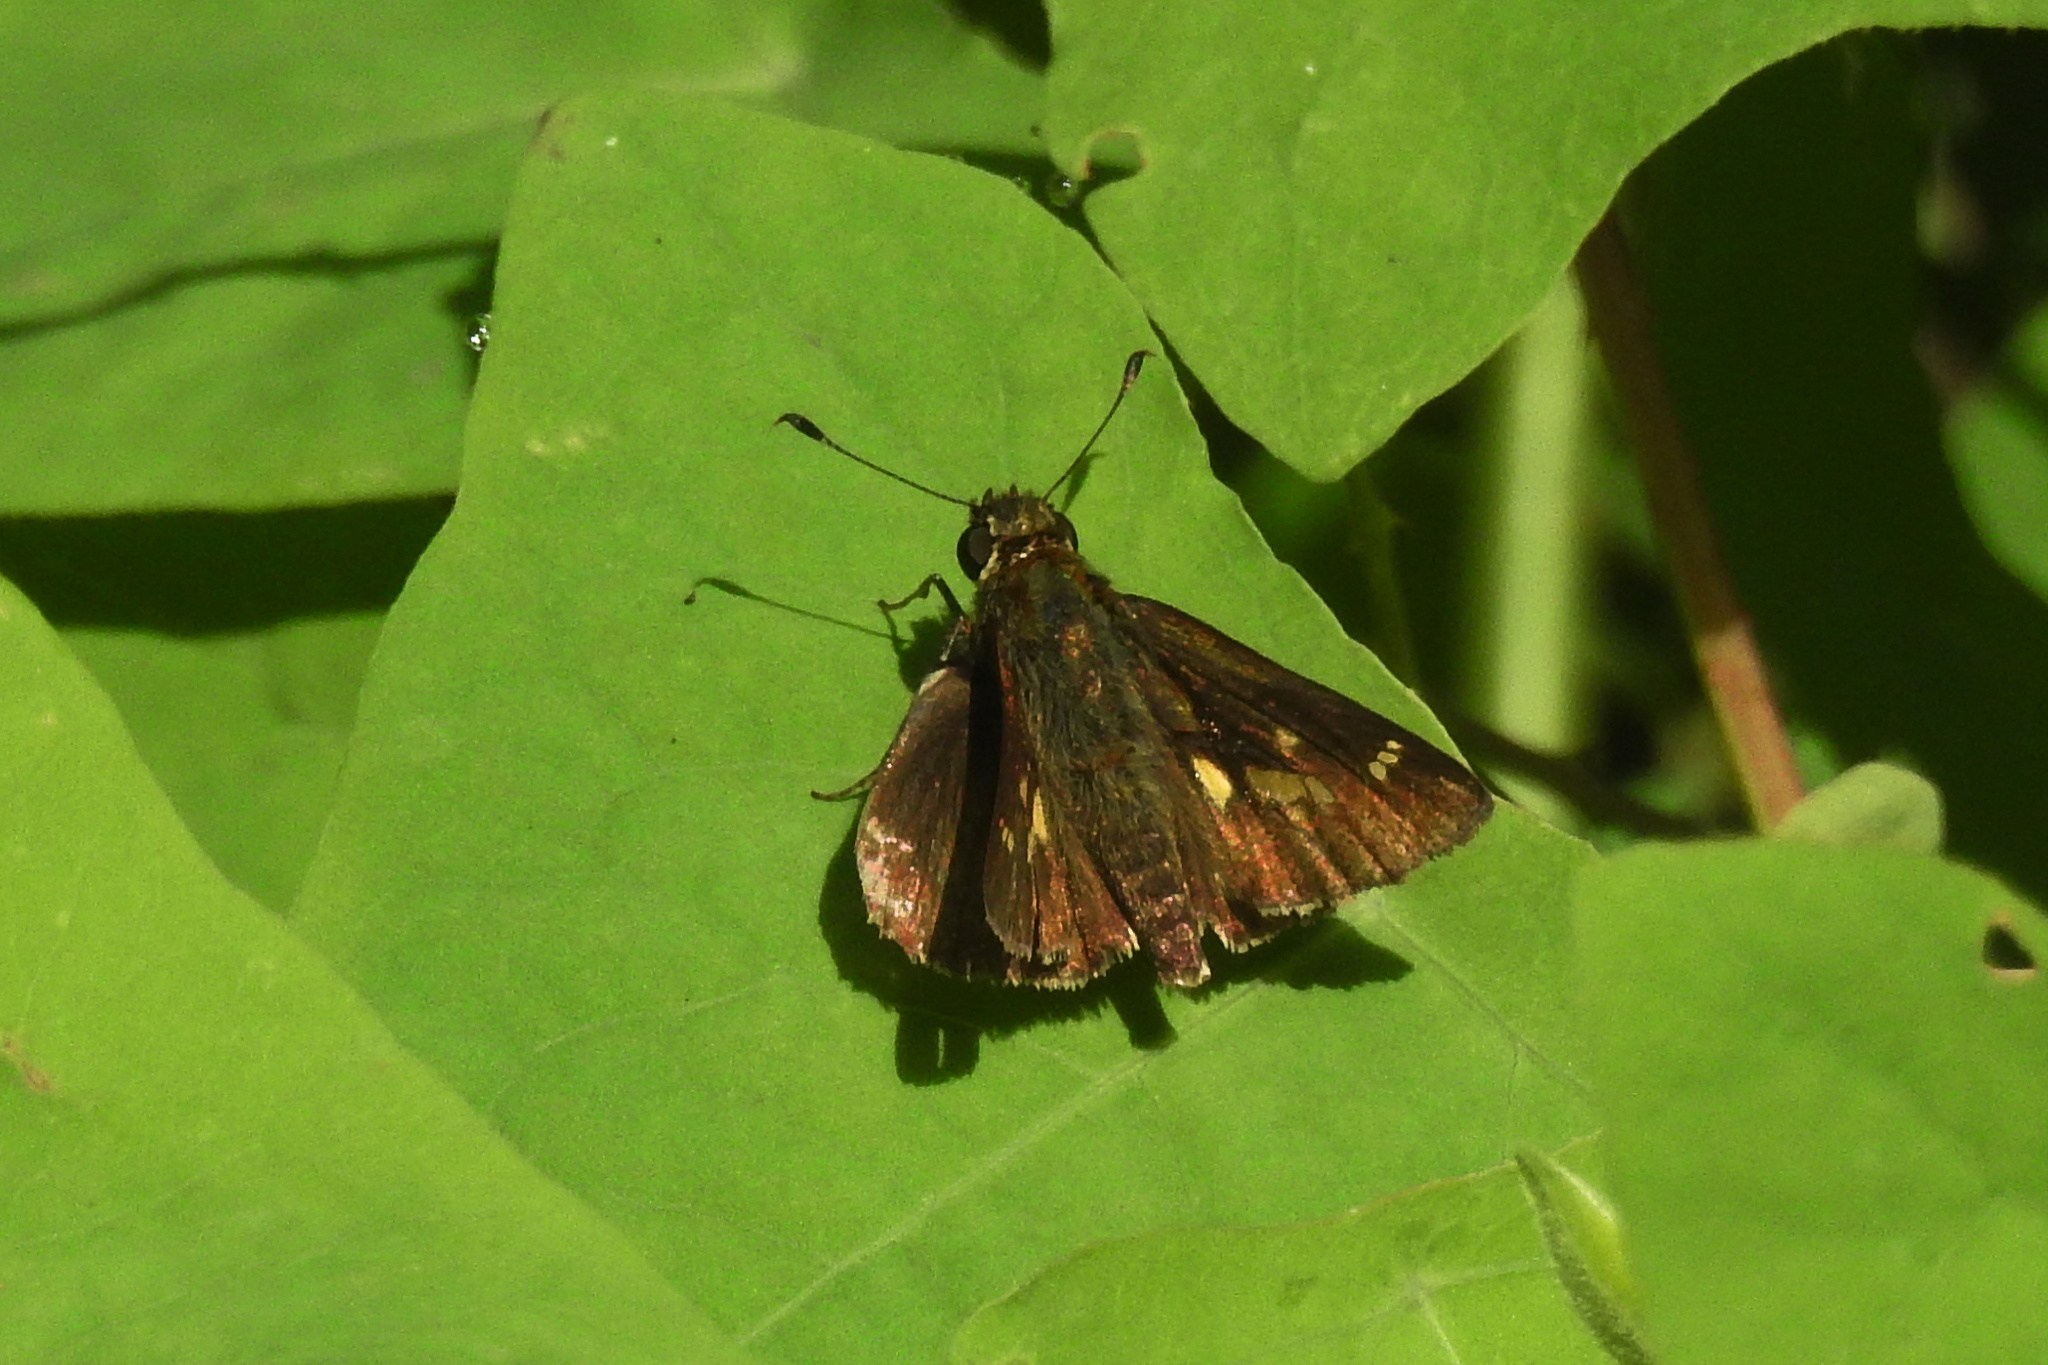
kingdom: Animalia
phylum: Arthropoda
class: Insecta
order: Lepidoptera
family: Hesperiidae
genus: Vernia
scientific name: Vernia verna
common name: Little glassywing
